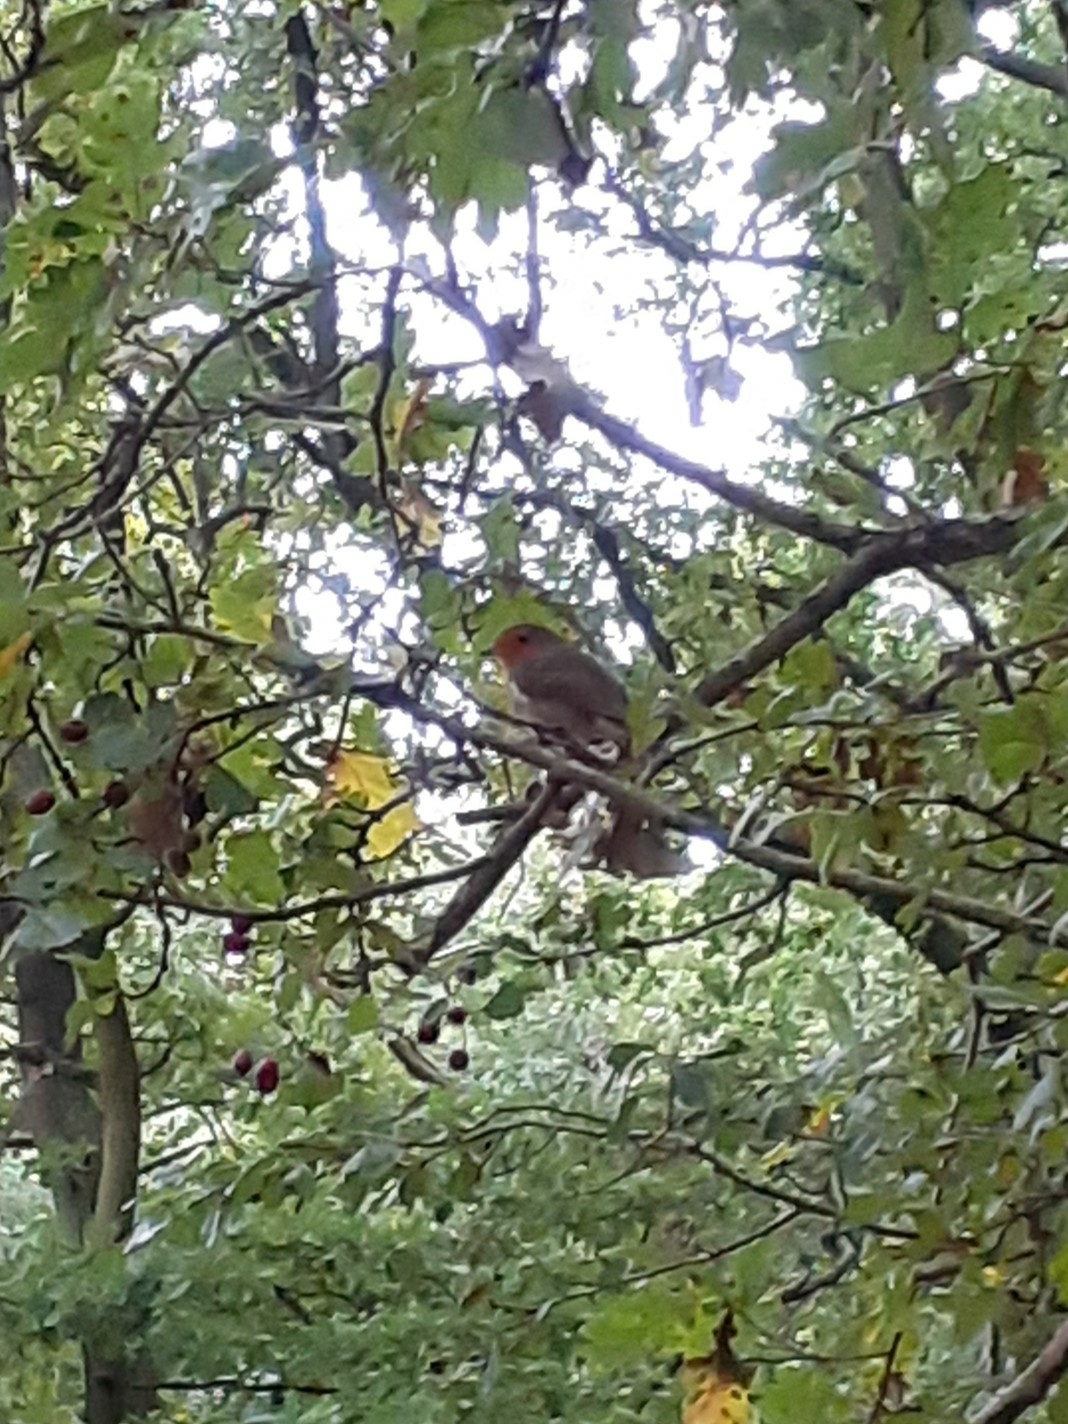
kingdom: Animalia
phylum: Chordata
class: Aves
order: Passeriformes
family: Muscicapidae
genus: Erithacus
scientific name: Erithacus rubecula
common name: European robin
